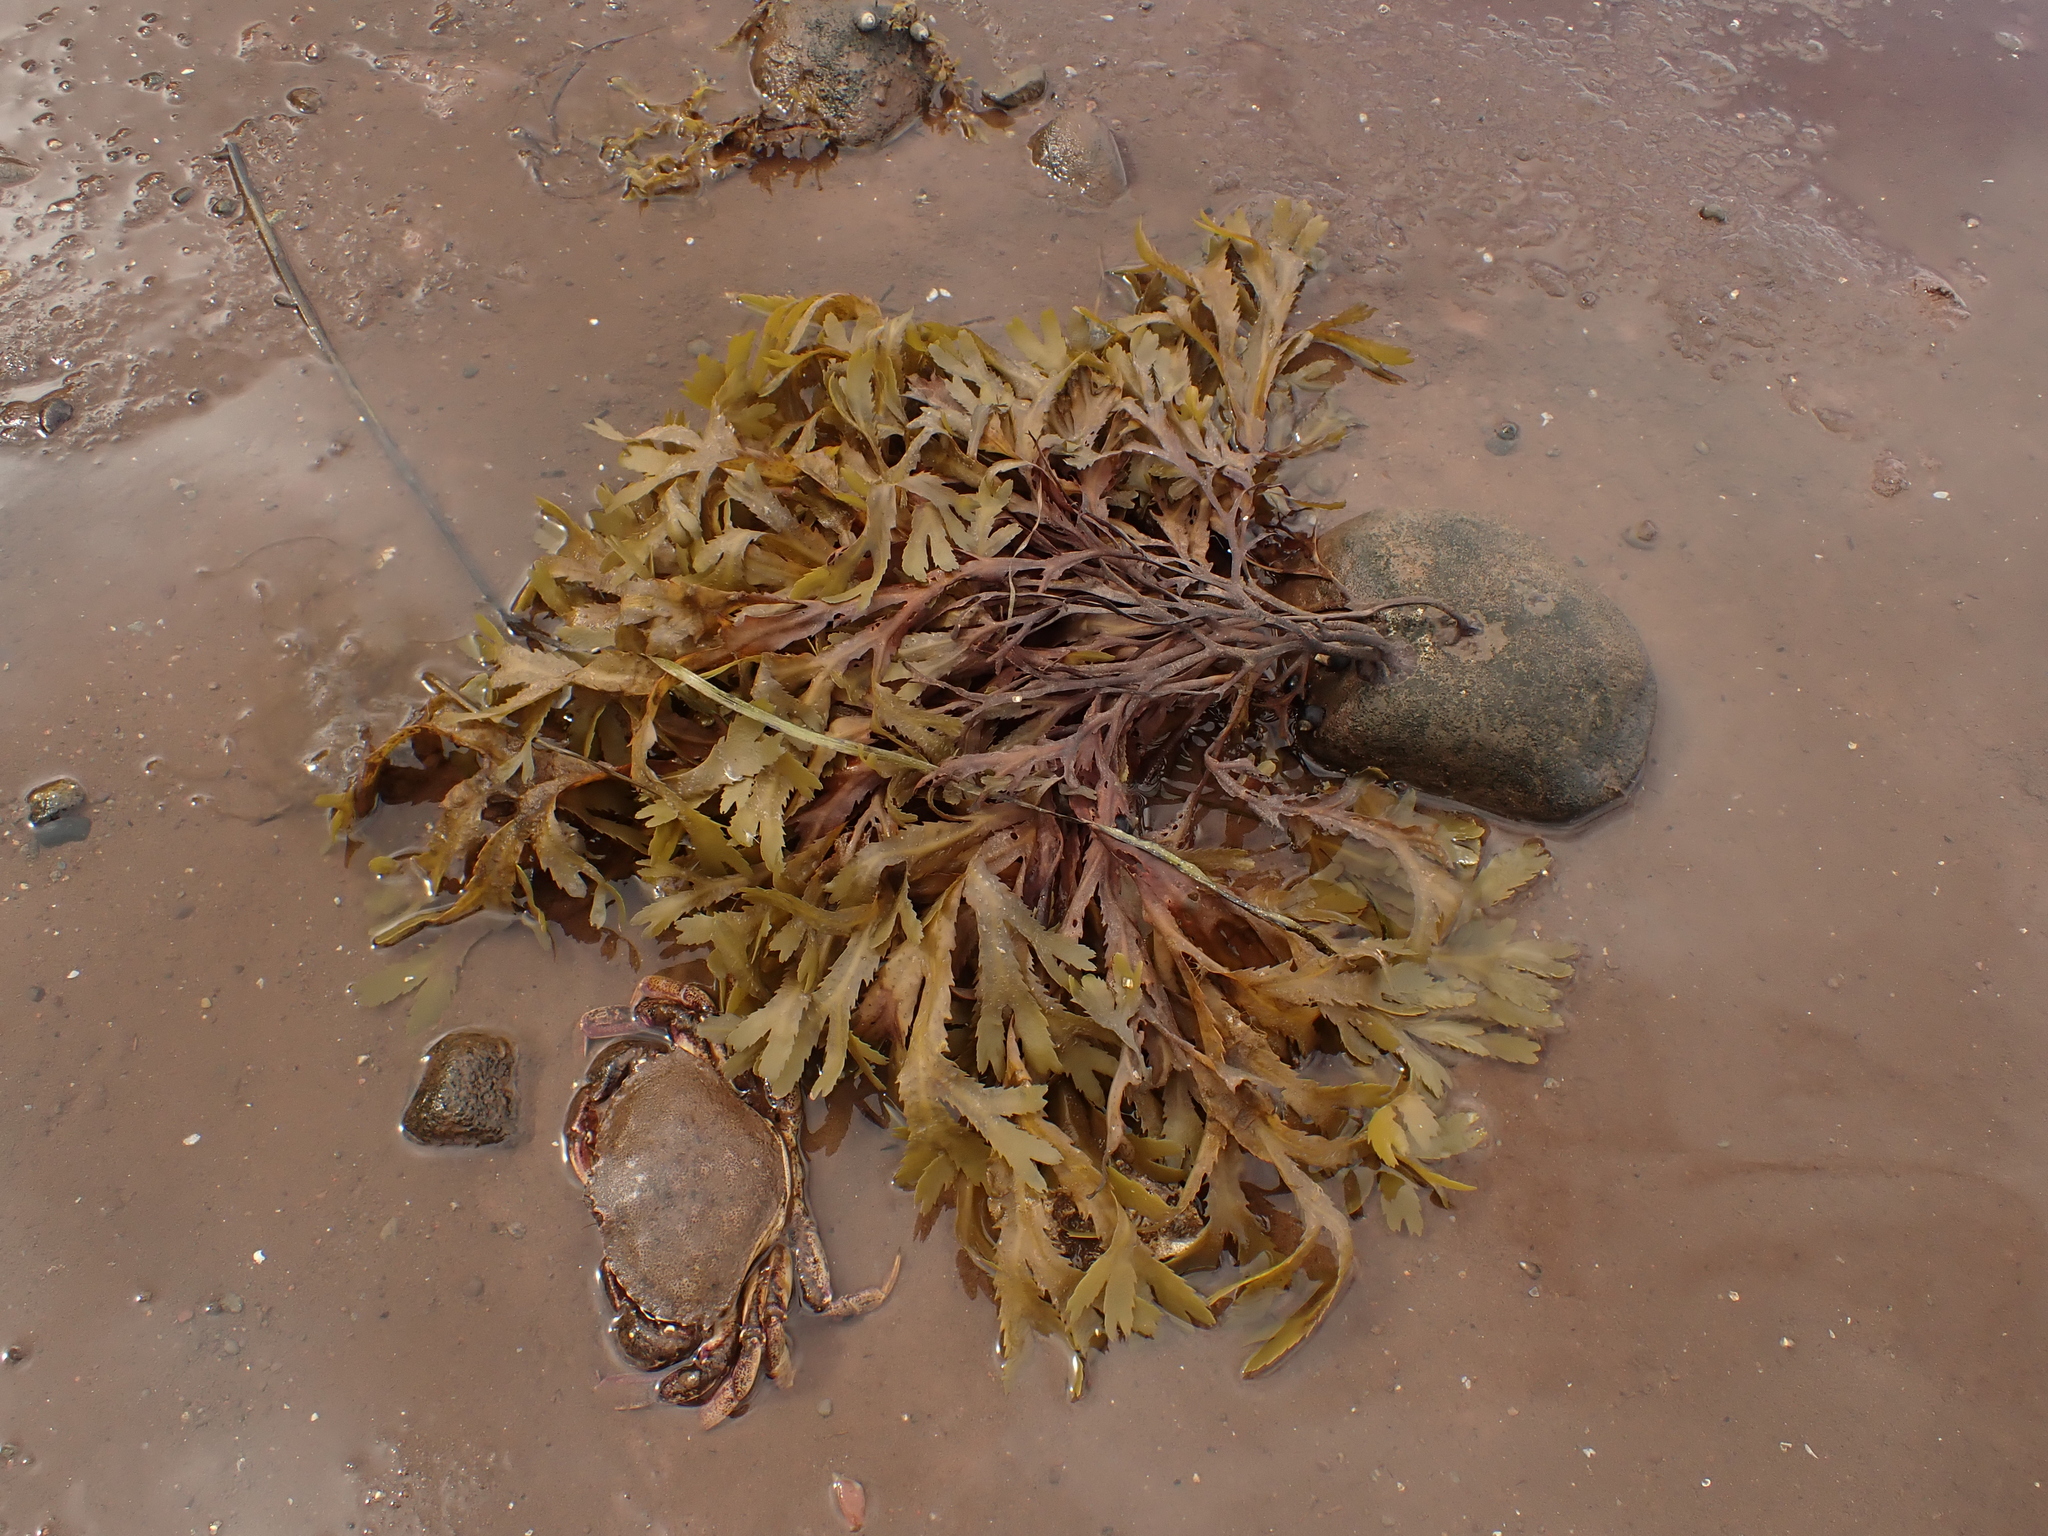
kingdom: Chromista
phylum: Ochrophyta
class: Phaeophyceae
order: Fucales
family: Fucaceae
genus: Fucus
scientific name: Fucus serratus
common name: Toothed wrack
